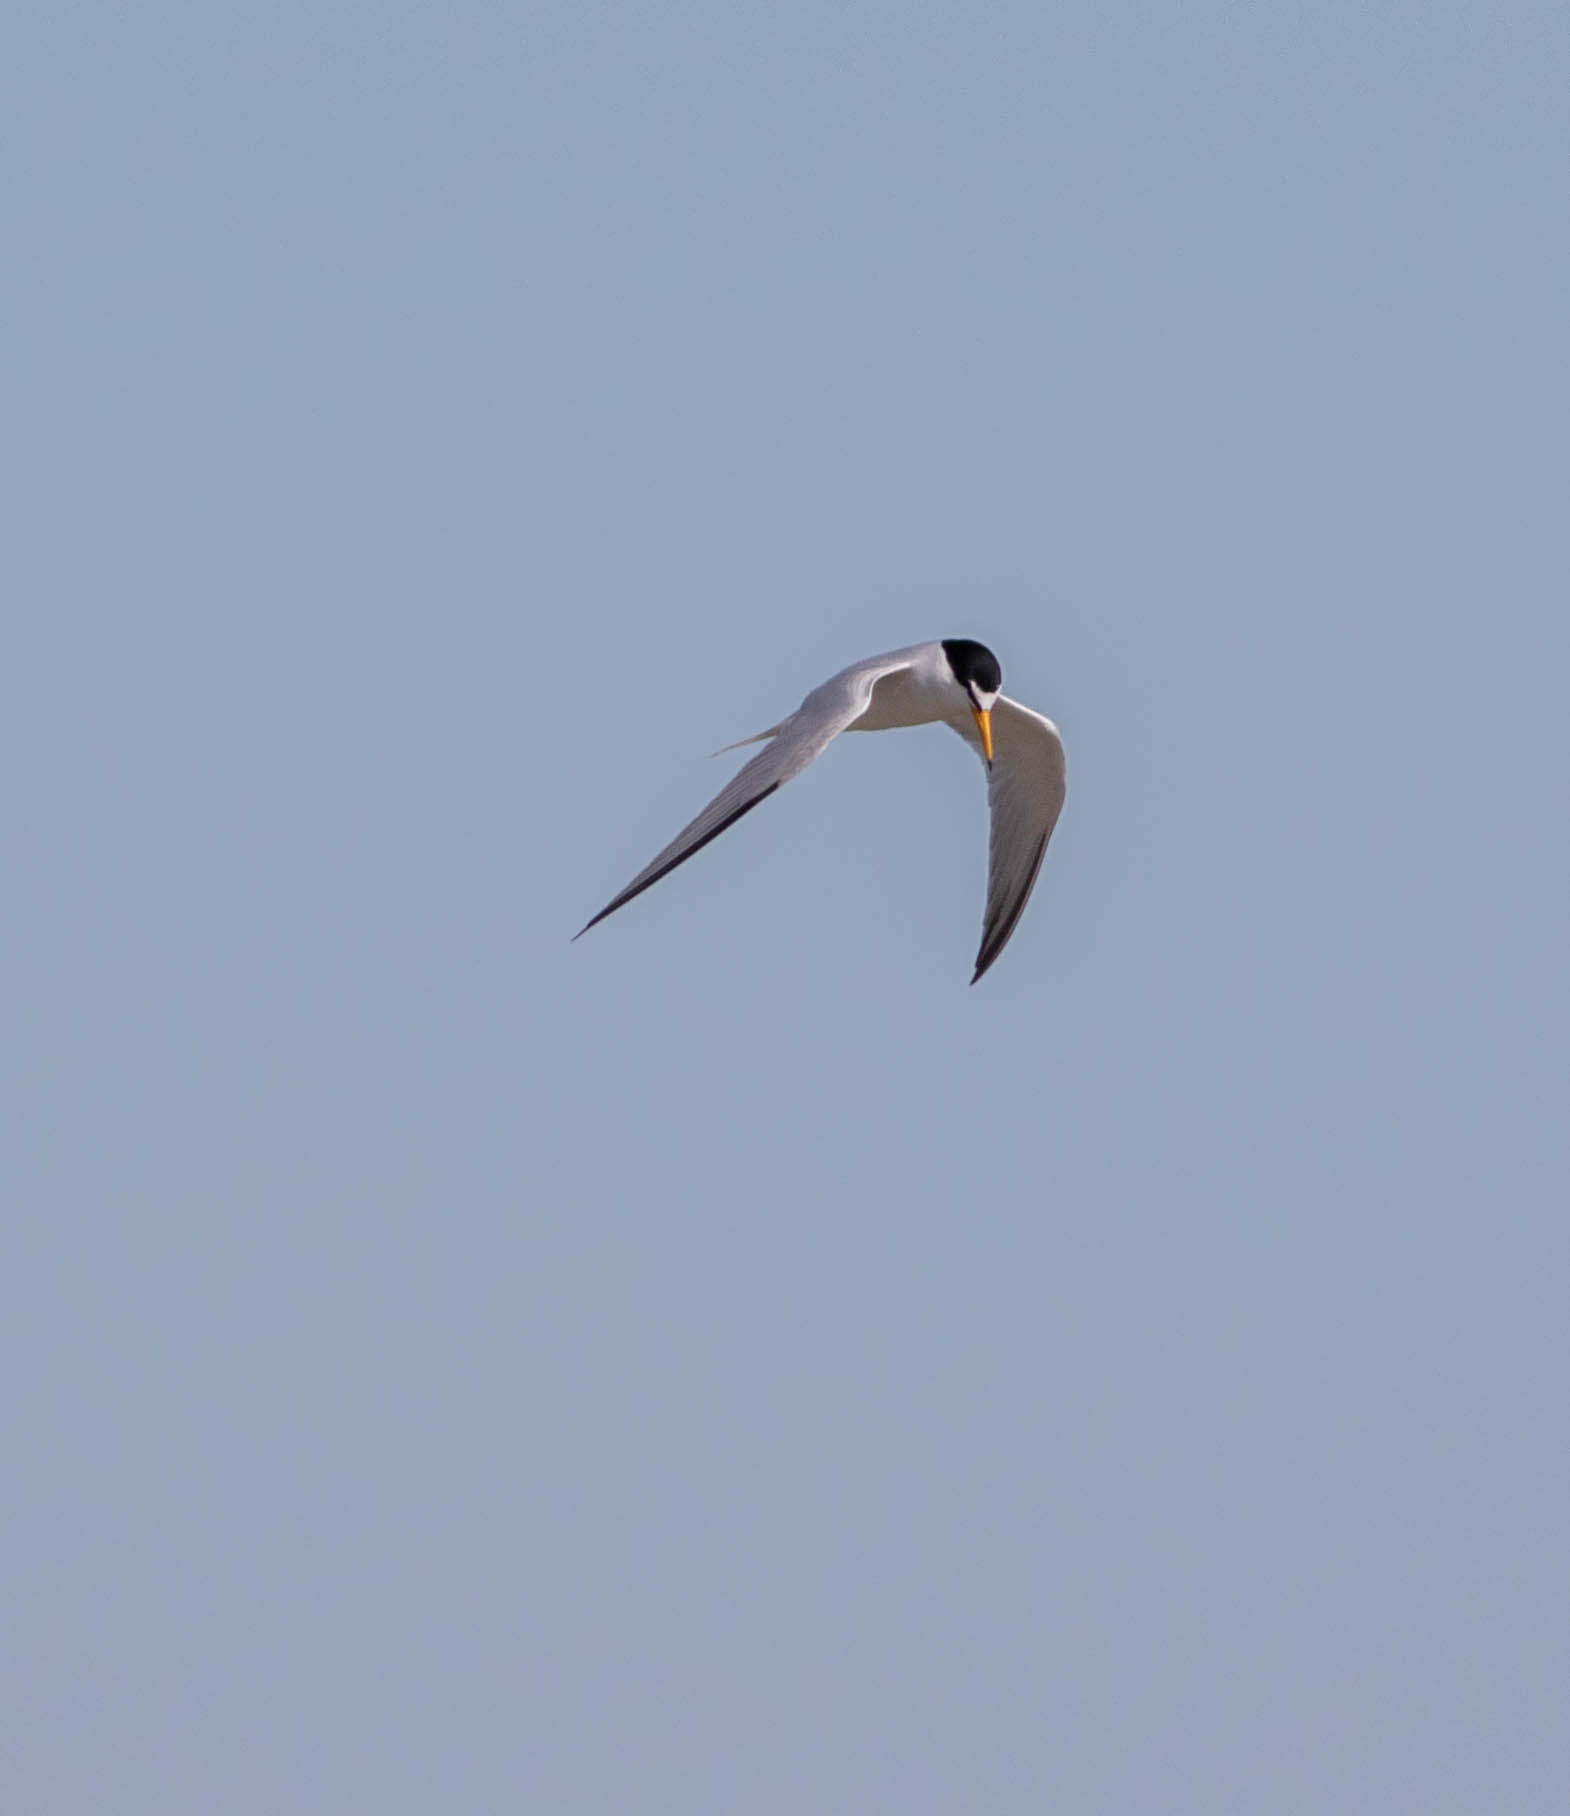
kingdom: Animalia
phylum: Chordata
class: Aves
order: Charadriiformes
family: Laridae
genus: Sternula
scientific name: Sternula antillarum
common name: Least tern
